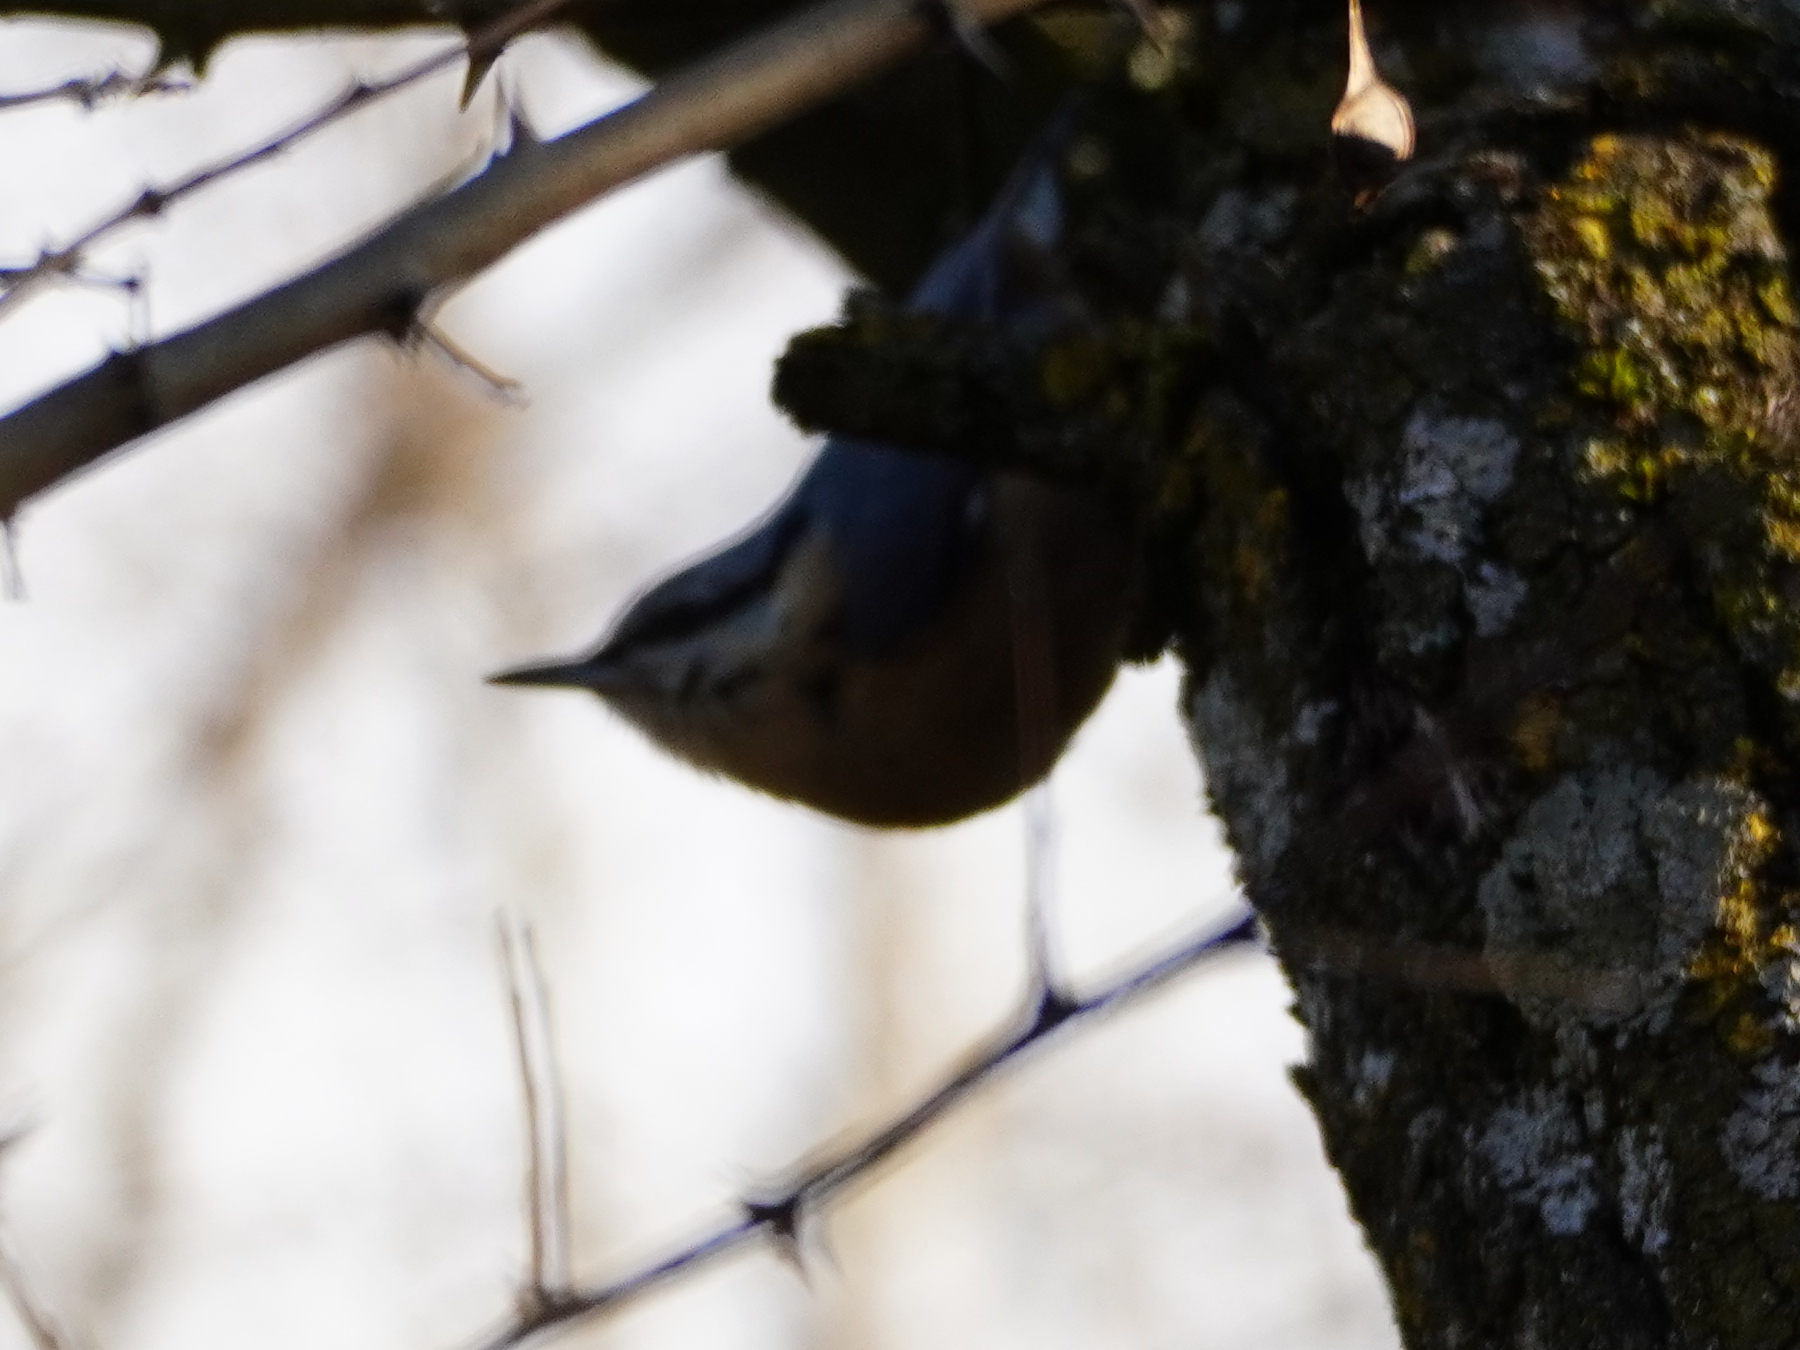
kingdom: Animalia
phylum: Chordata
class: Aves
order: Passeriformes
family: Sittidae
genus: Sitta
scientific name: Sitta europaea
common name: Eurasian nuthatch
